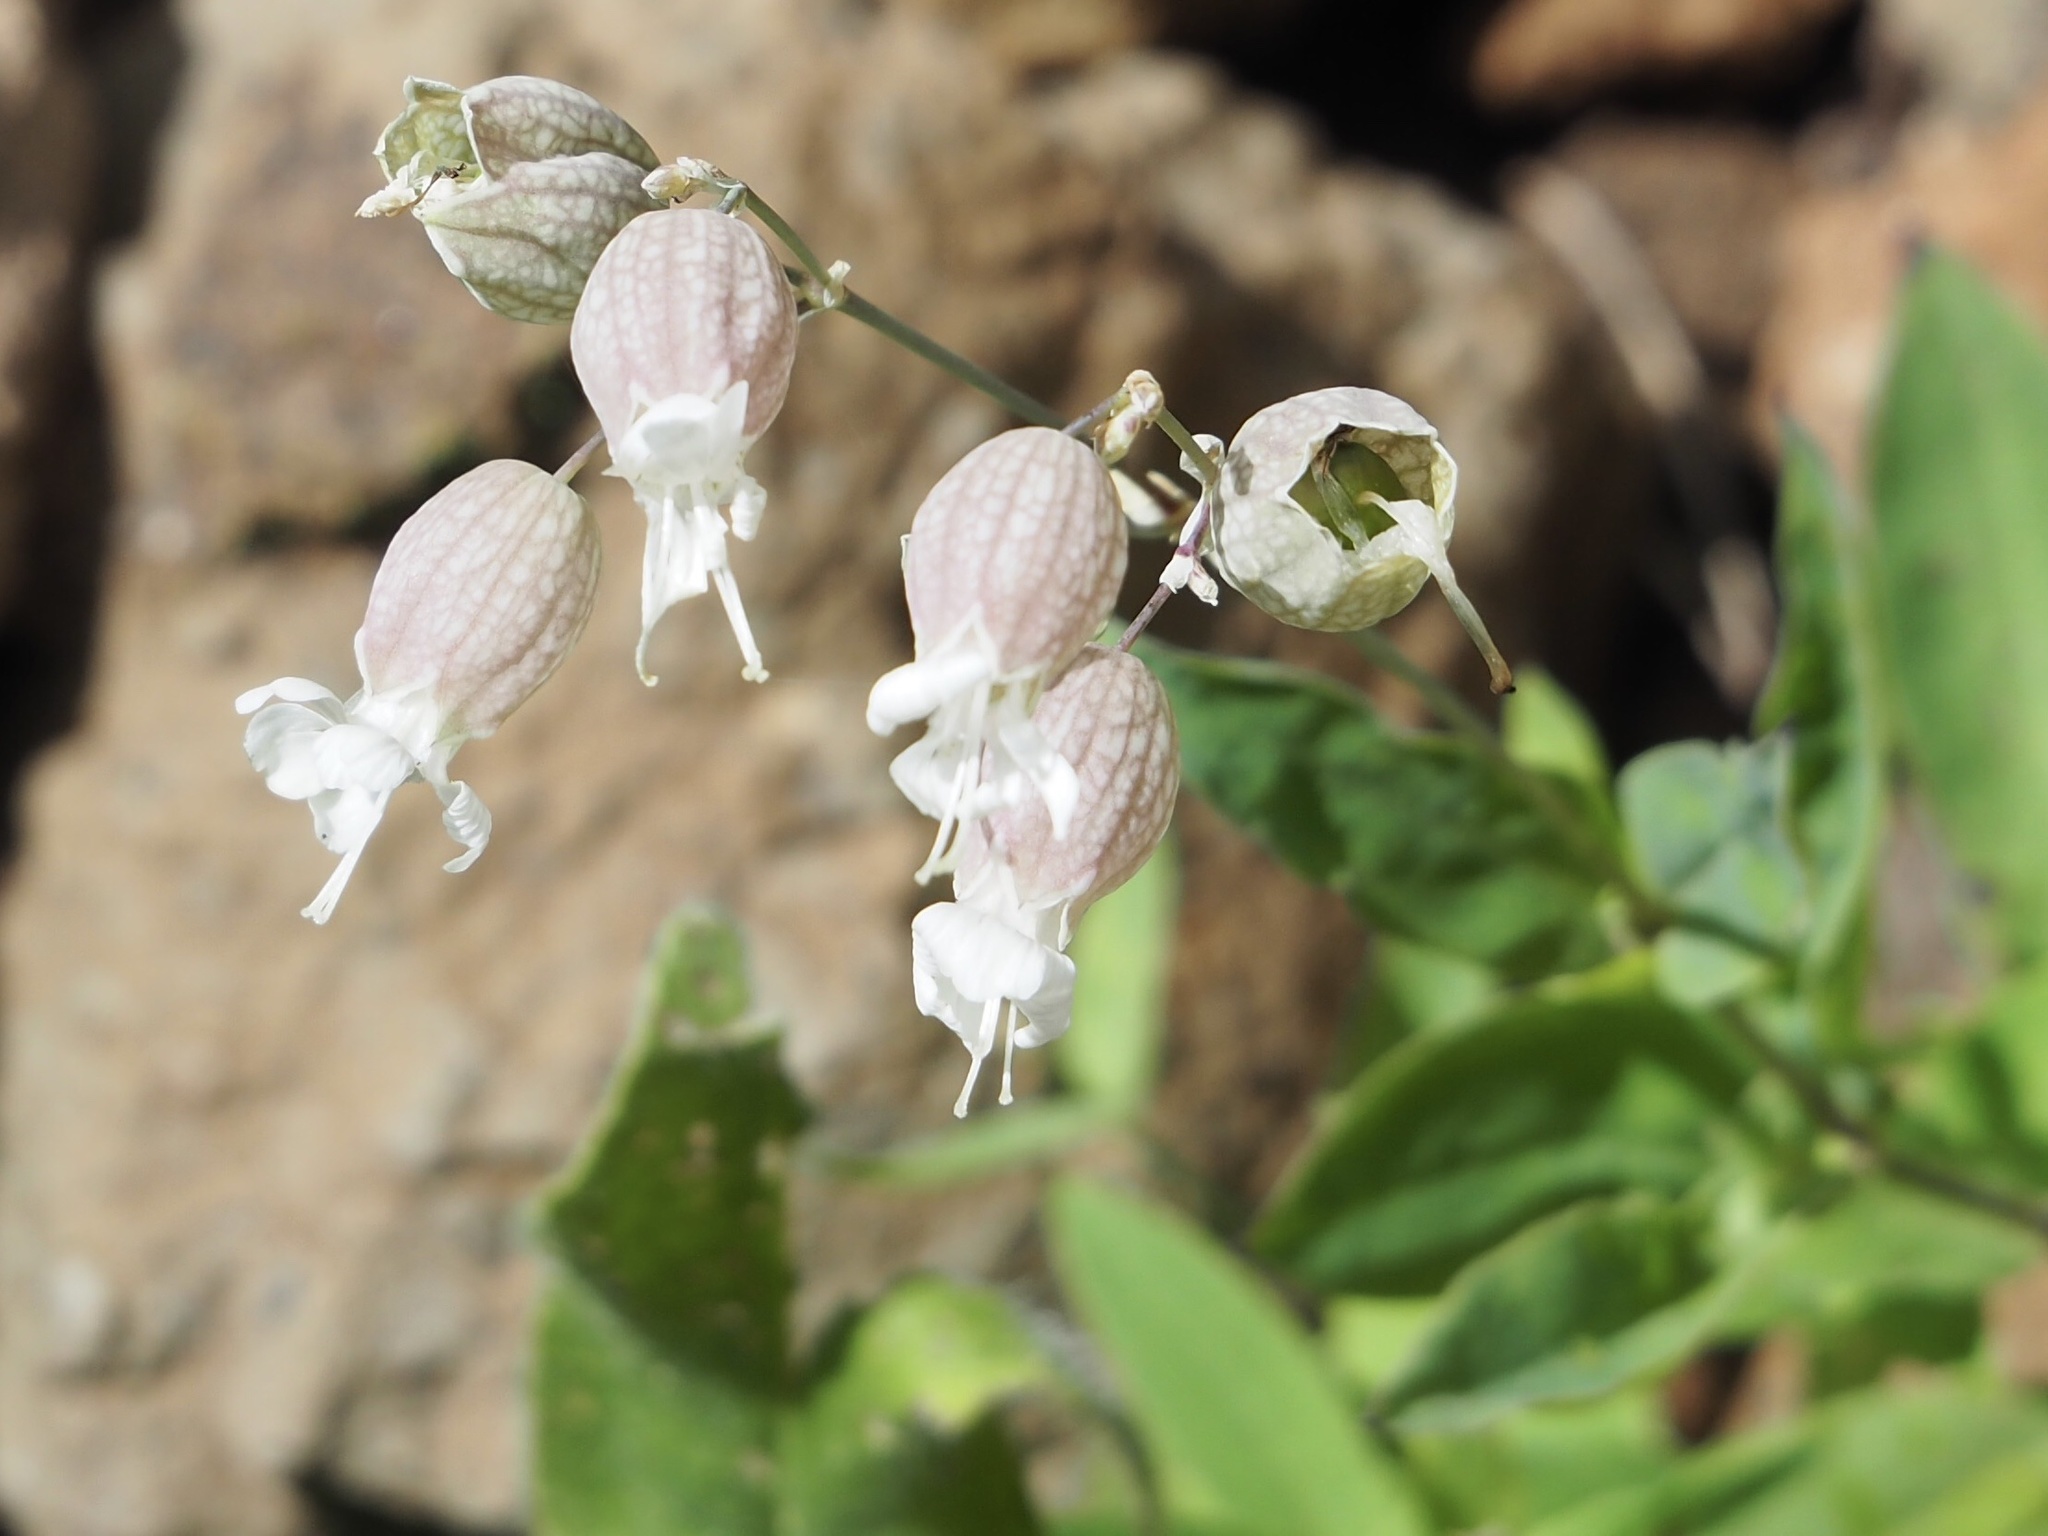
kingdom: Plantae
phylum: Tracheophyta
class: Magnoliopsida
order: Caryophyllales
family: Caryophyllaceae
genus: Silene
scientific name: Silene vulgaris
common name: Bladder campion
